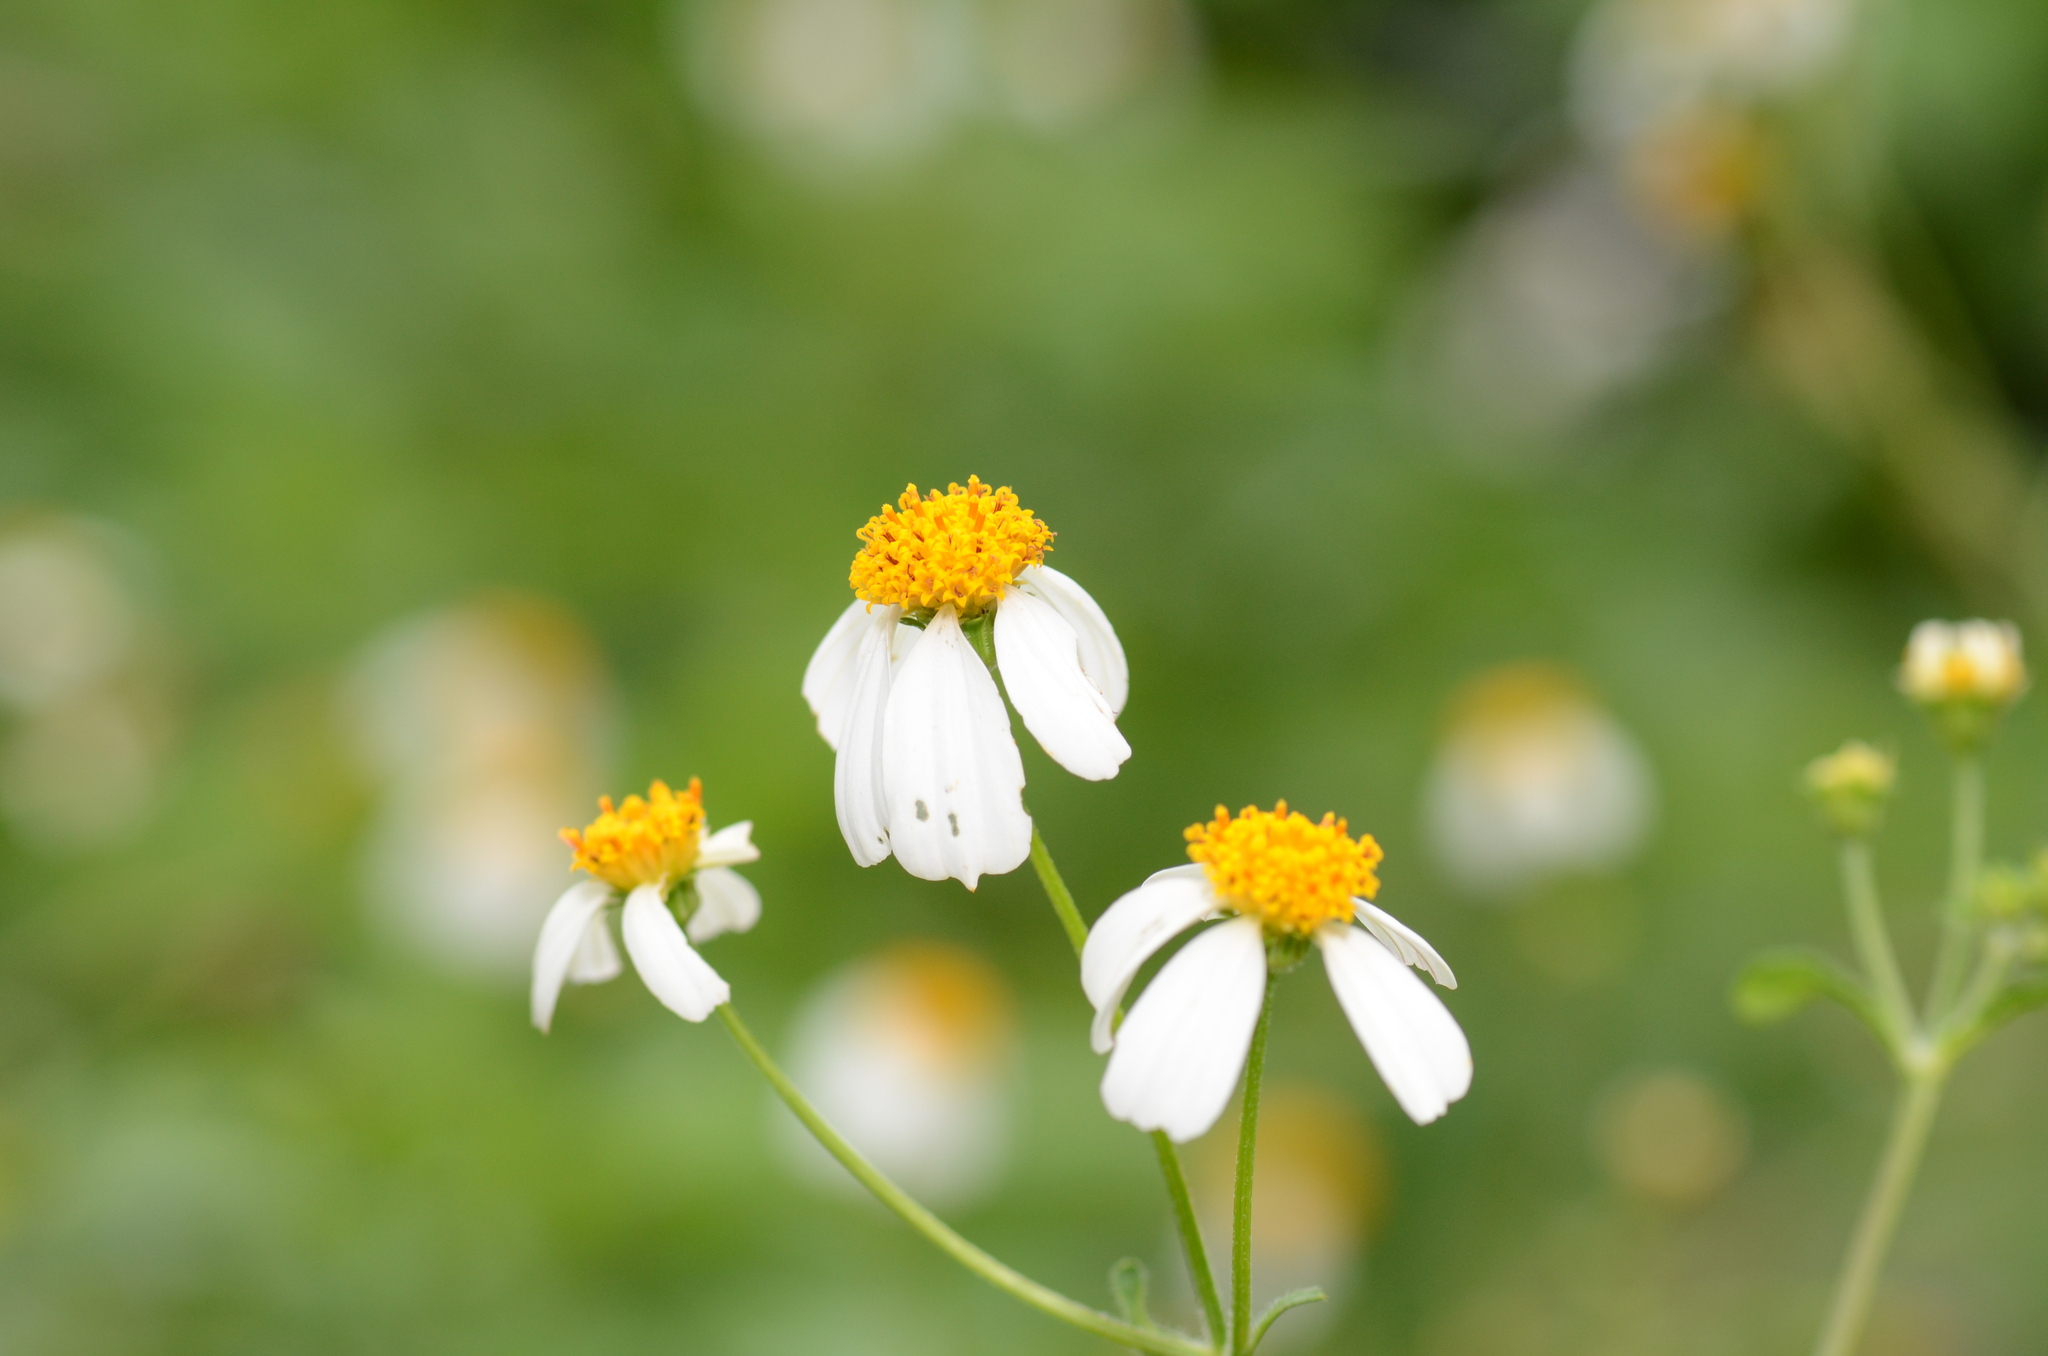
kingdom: Plantae
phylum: Tracheophyta
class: Magnoliopsida
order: Asterales
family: Asteraceae
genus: Bidens
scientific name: Bidens alba
